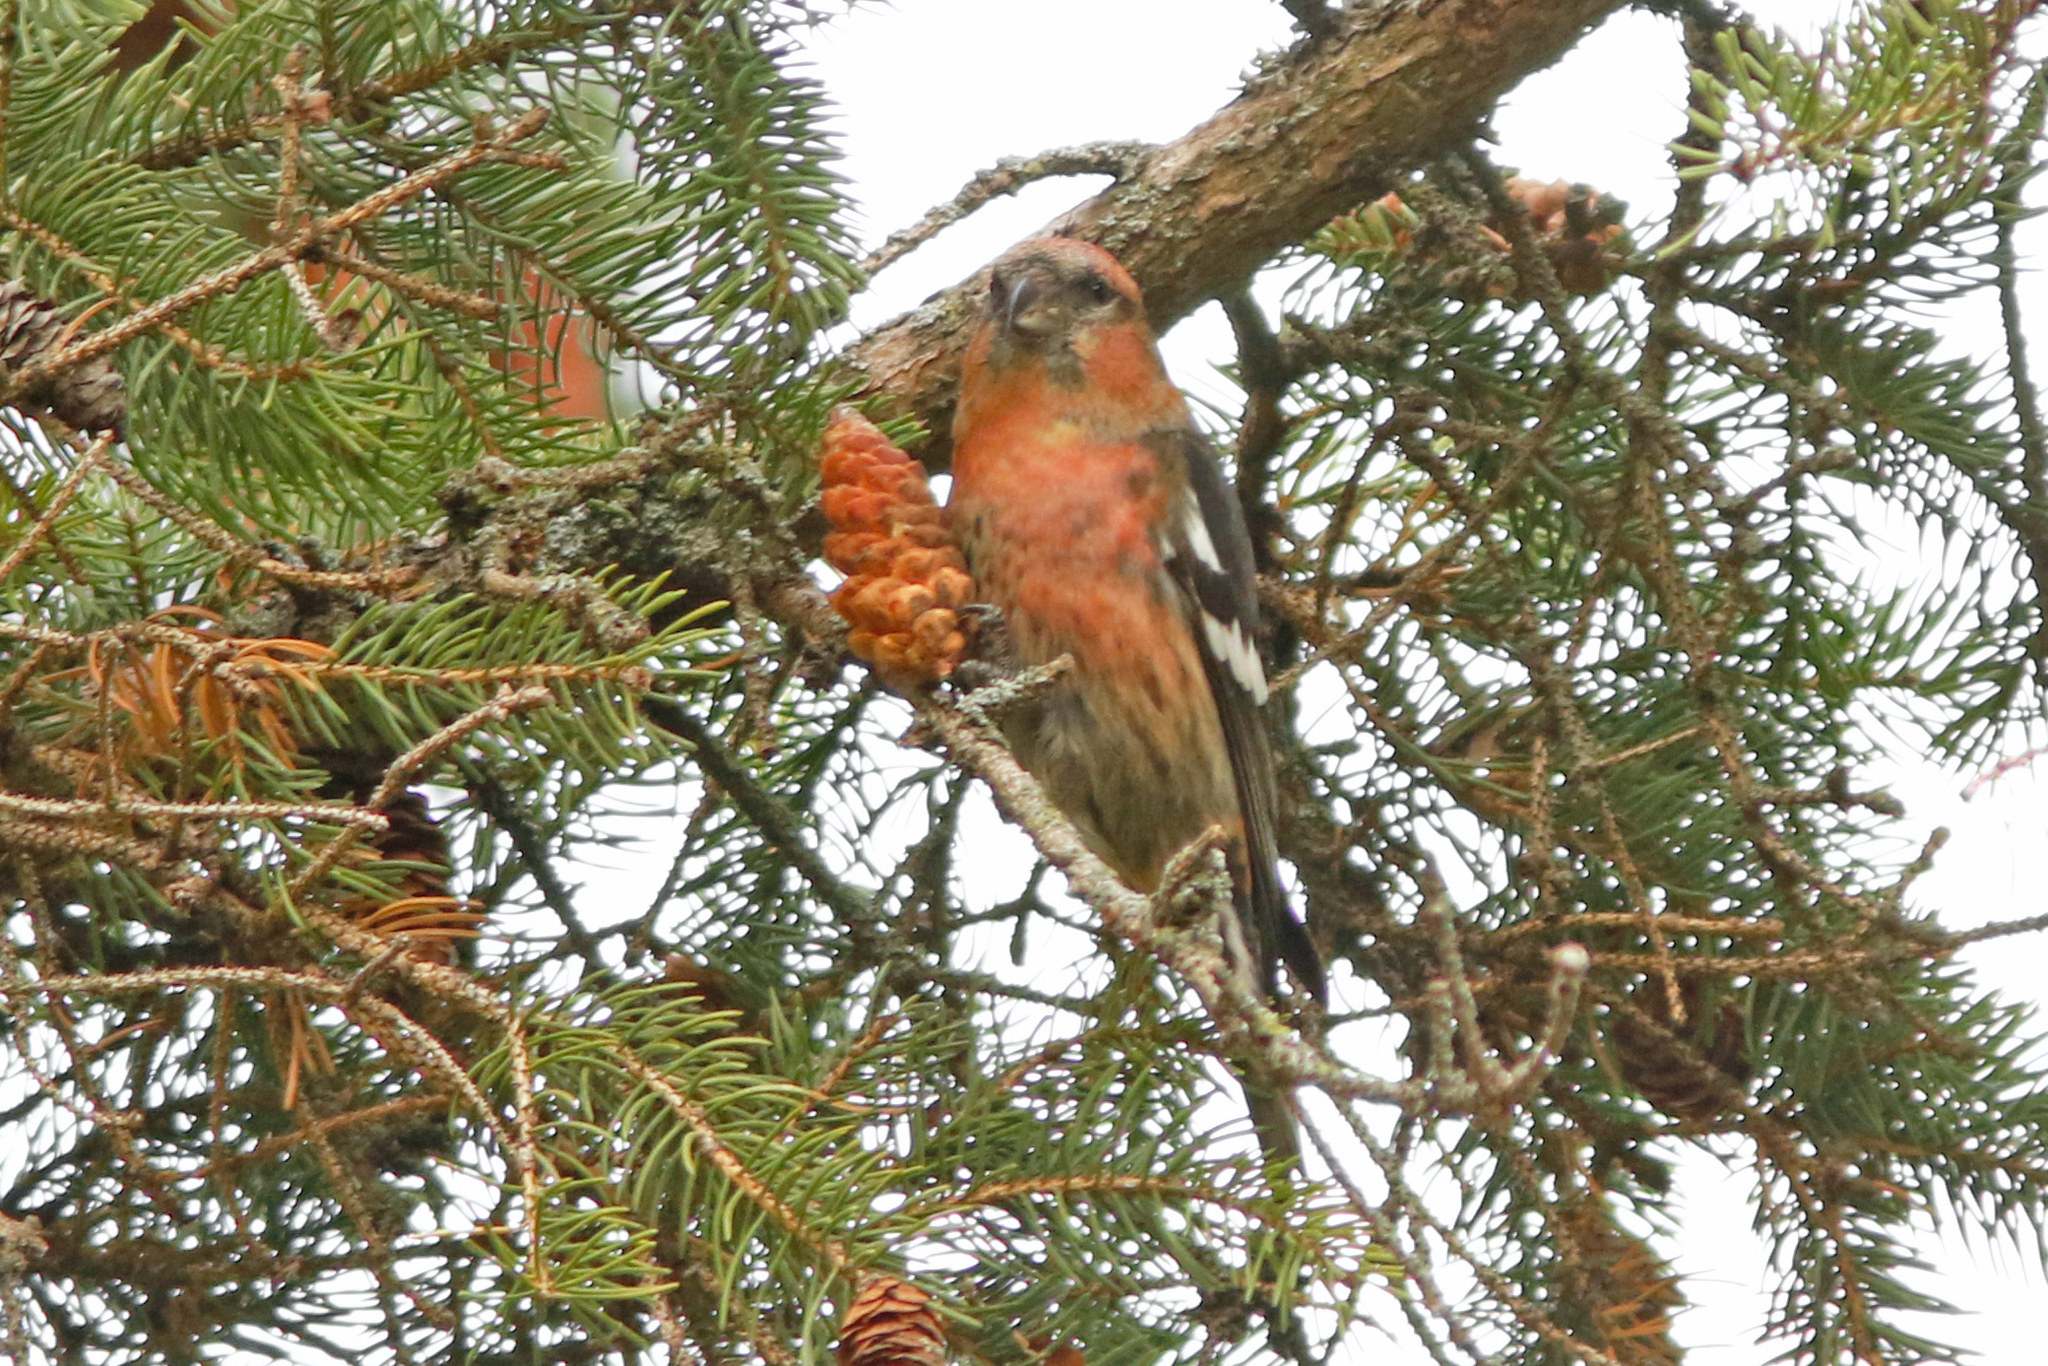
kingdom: Animalia
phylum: Chordata
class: Aves
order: Passeriformes
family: Fringillidae
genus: Loxia
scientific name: Loxia leucoptera
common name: Two-barred crossbill
